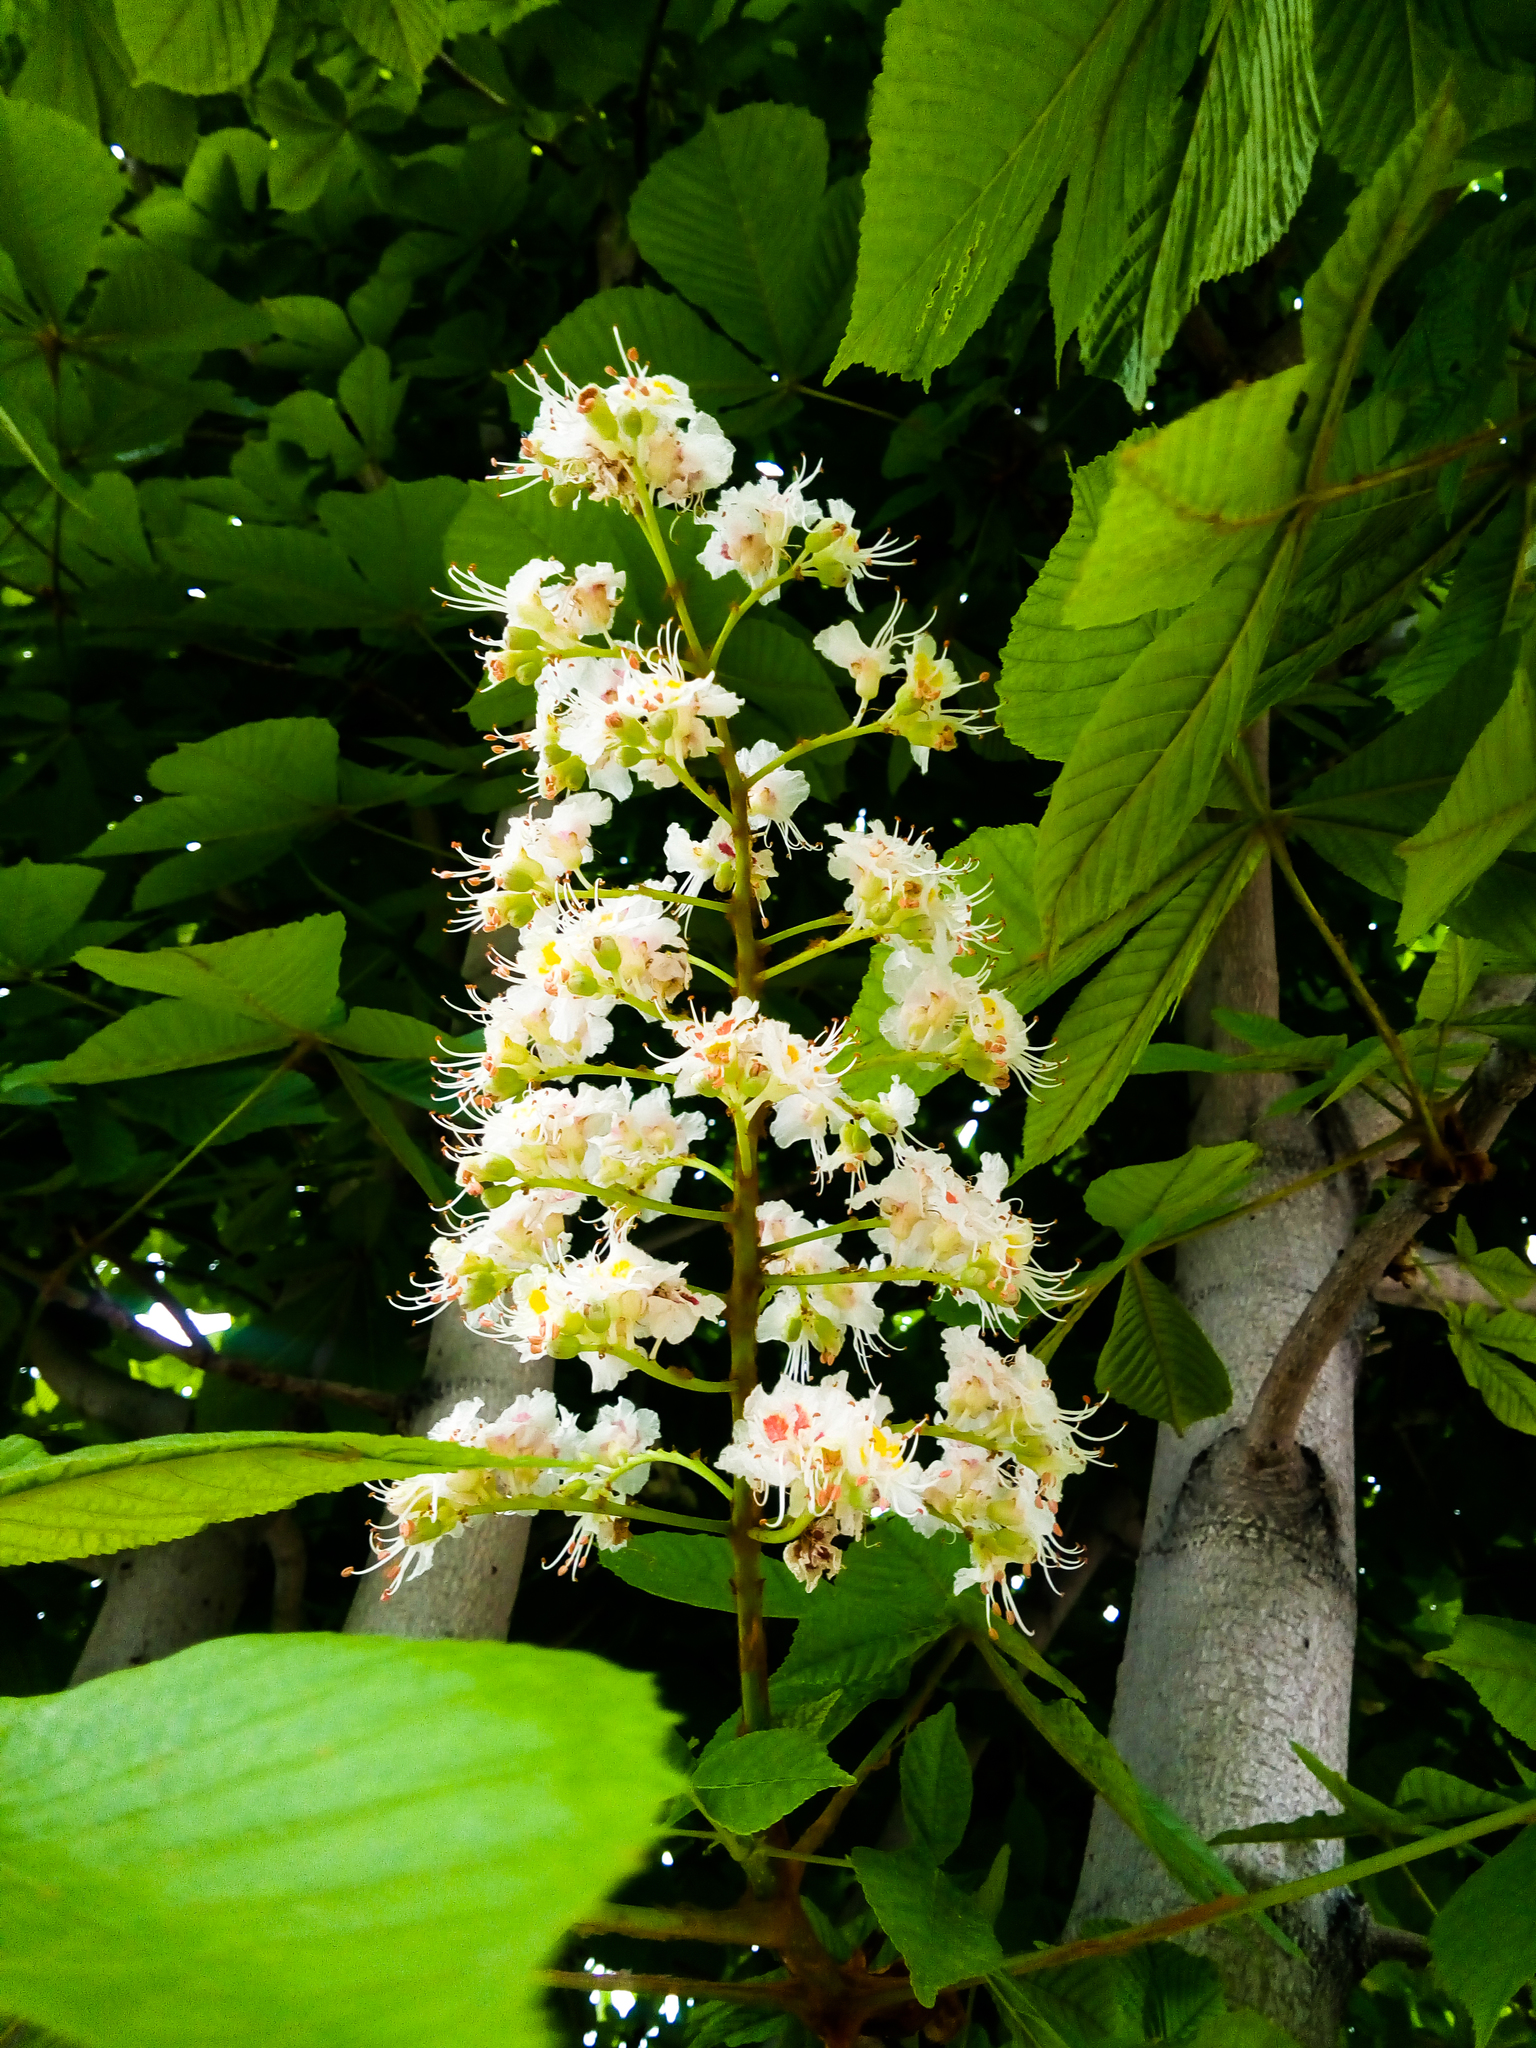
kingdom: Plantae
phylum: Tracheophyta
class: Magnoliopsida
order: Sapindales
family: Sapindaceae
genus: Aesculus
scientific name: Aesculus hippocastanum
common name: Horse-chestnut
